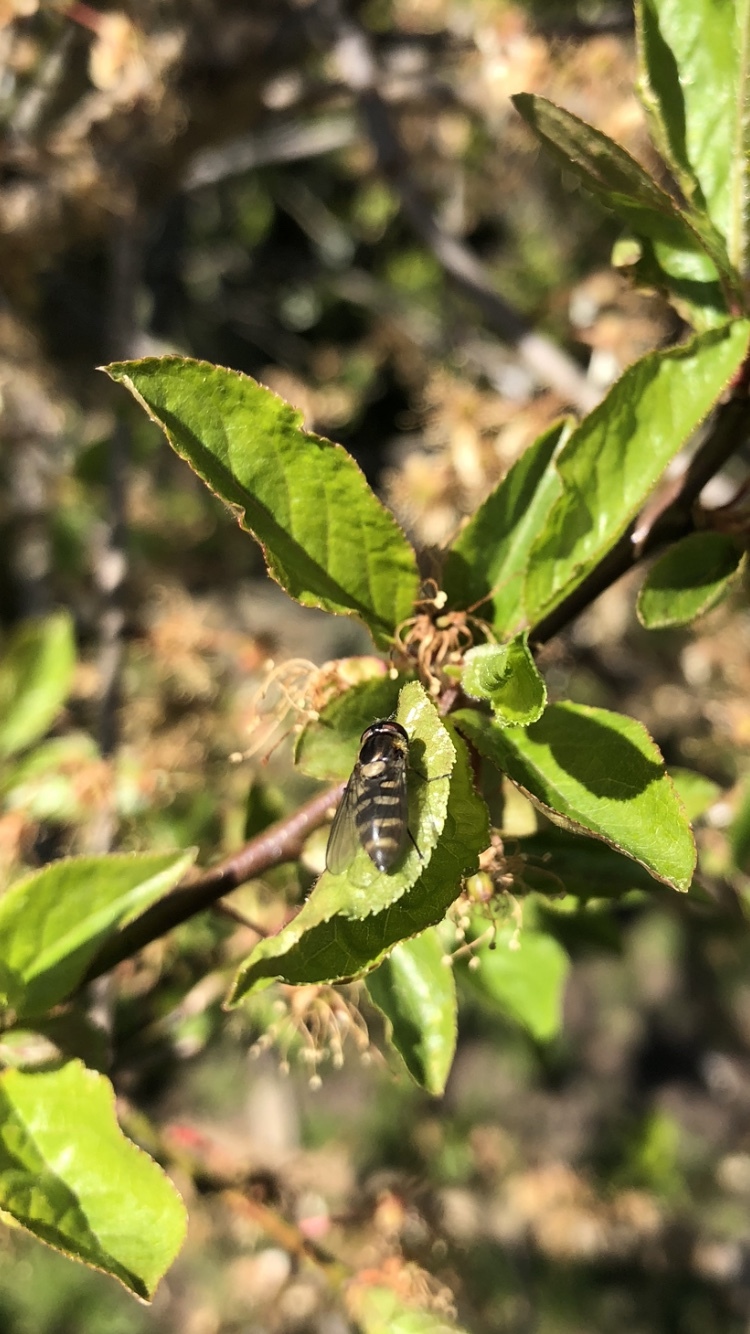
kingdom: Animalia
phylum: Arthropoda
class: Insecta
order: Diptera
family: Syrphidae
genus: Parasyrphus
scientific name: Parasyrphus punctulatus
